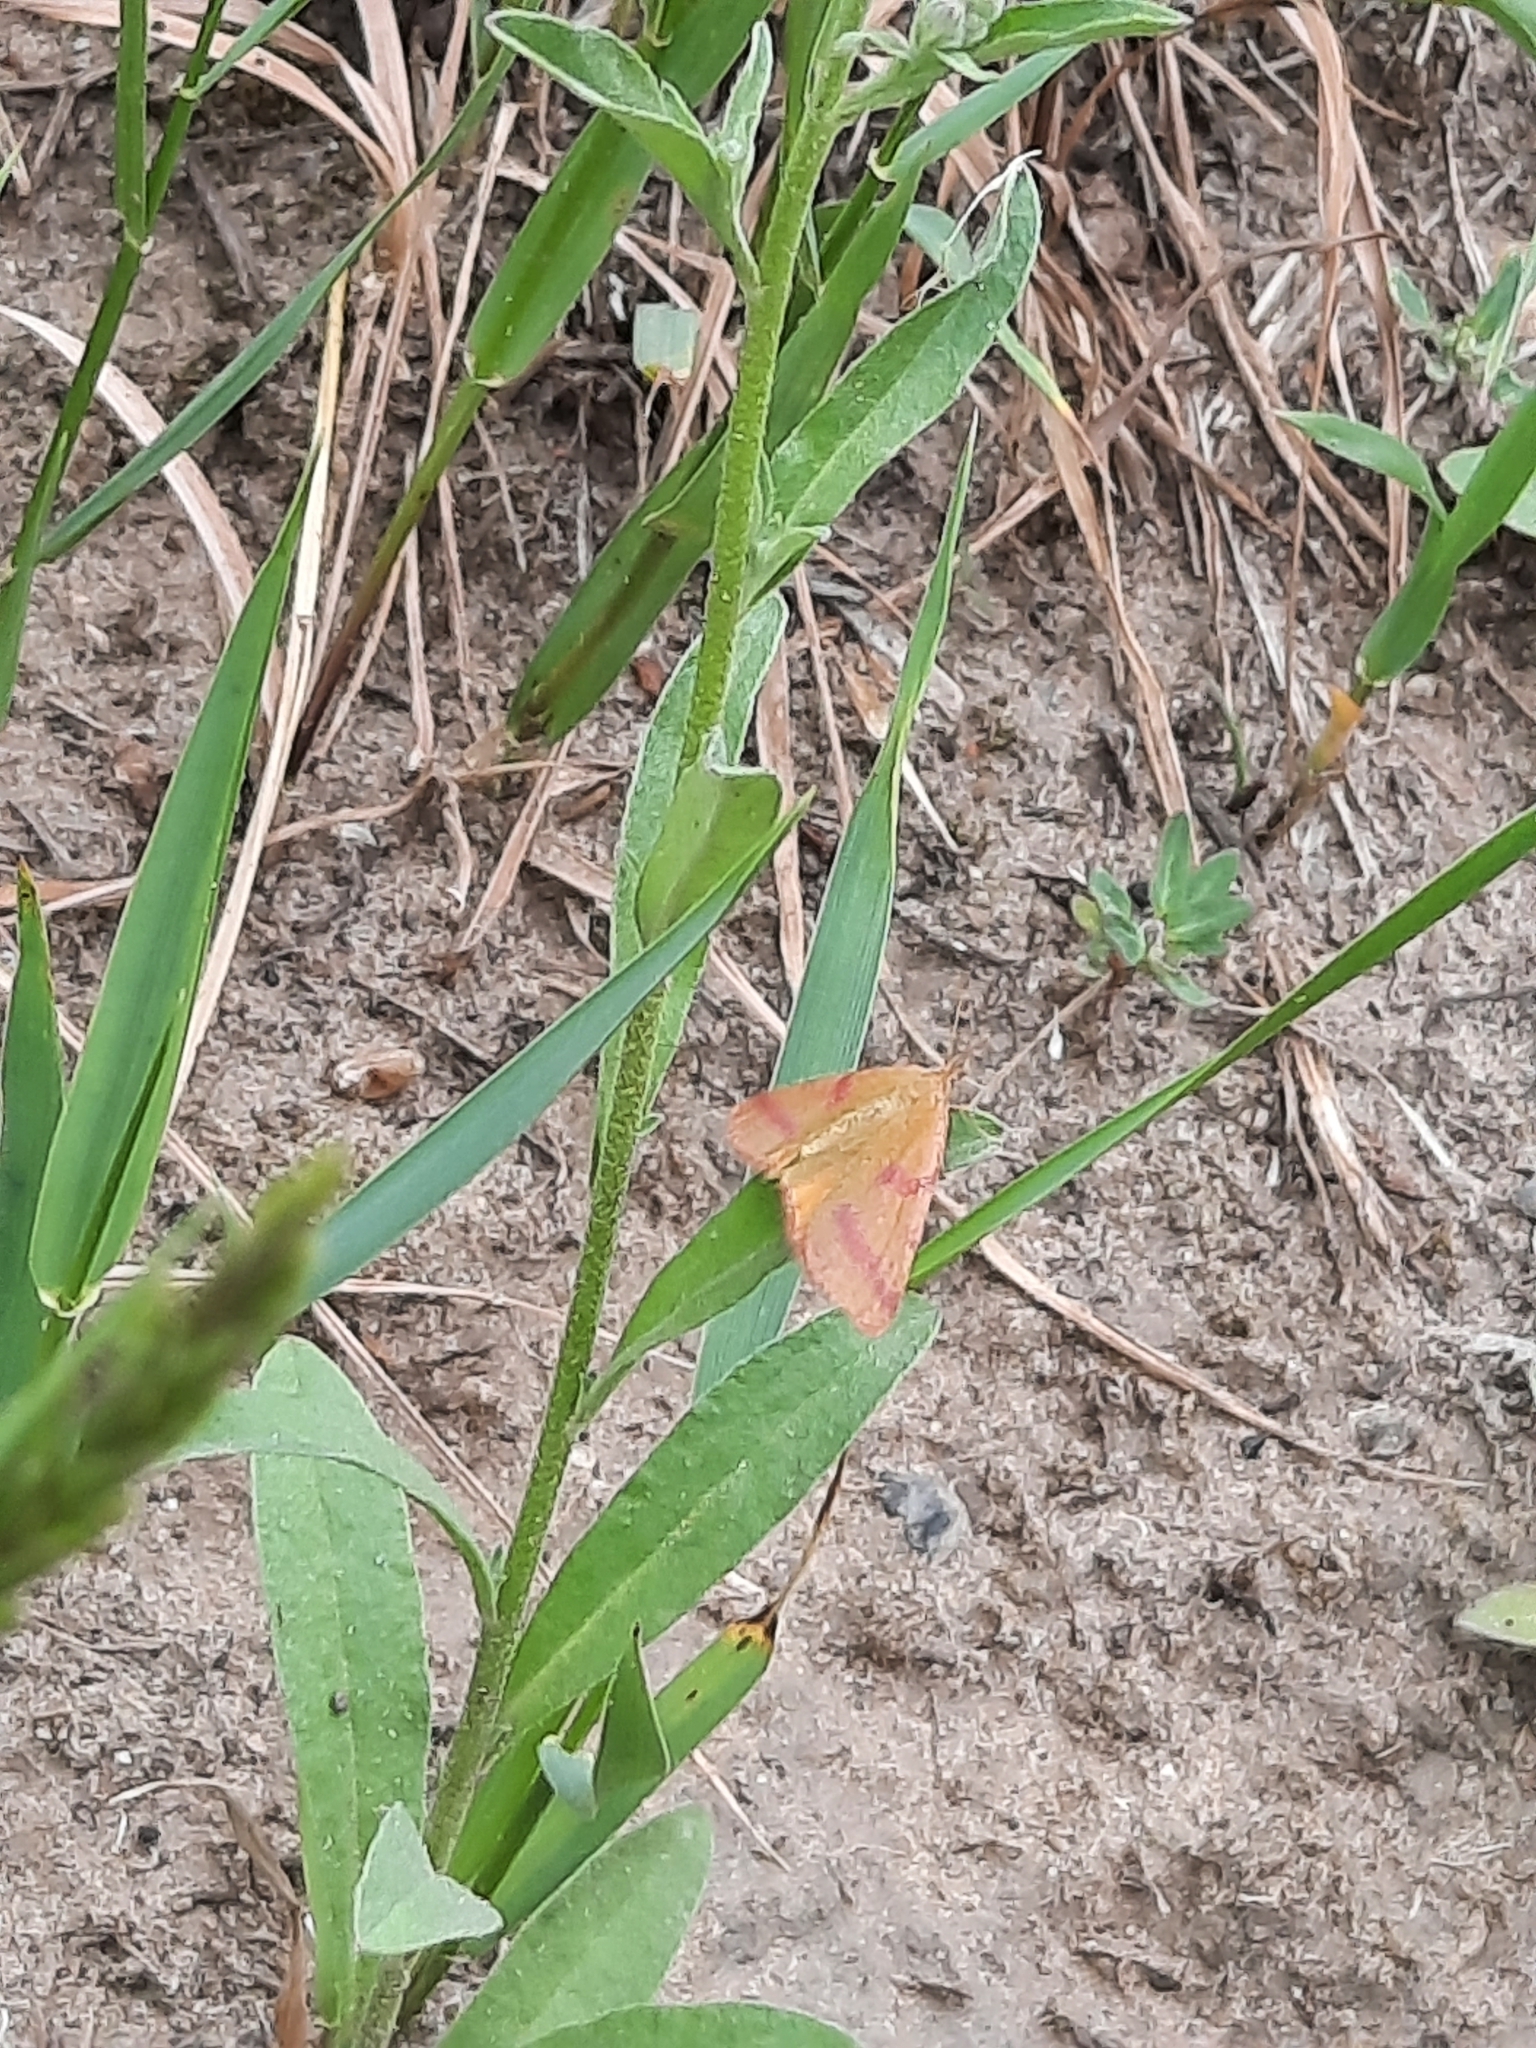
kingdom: Animalia
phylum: Arthropoda
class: Insecta
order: Lepidoptera
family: Geometridae
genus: Lythria
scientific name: Lythria purpuraria
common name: Purple-barred yellow
